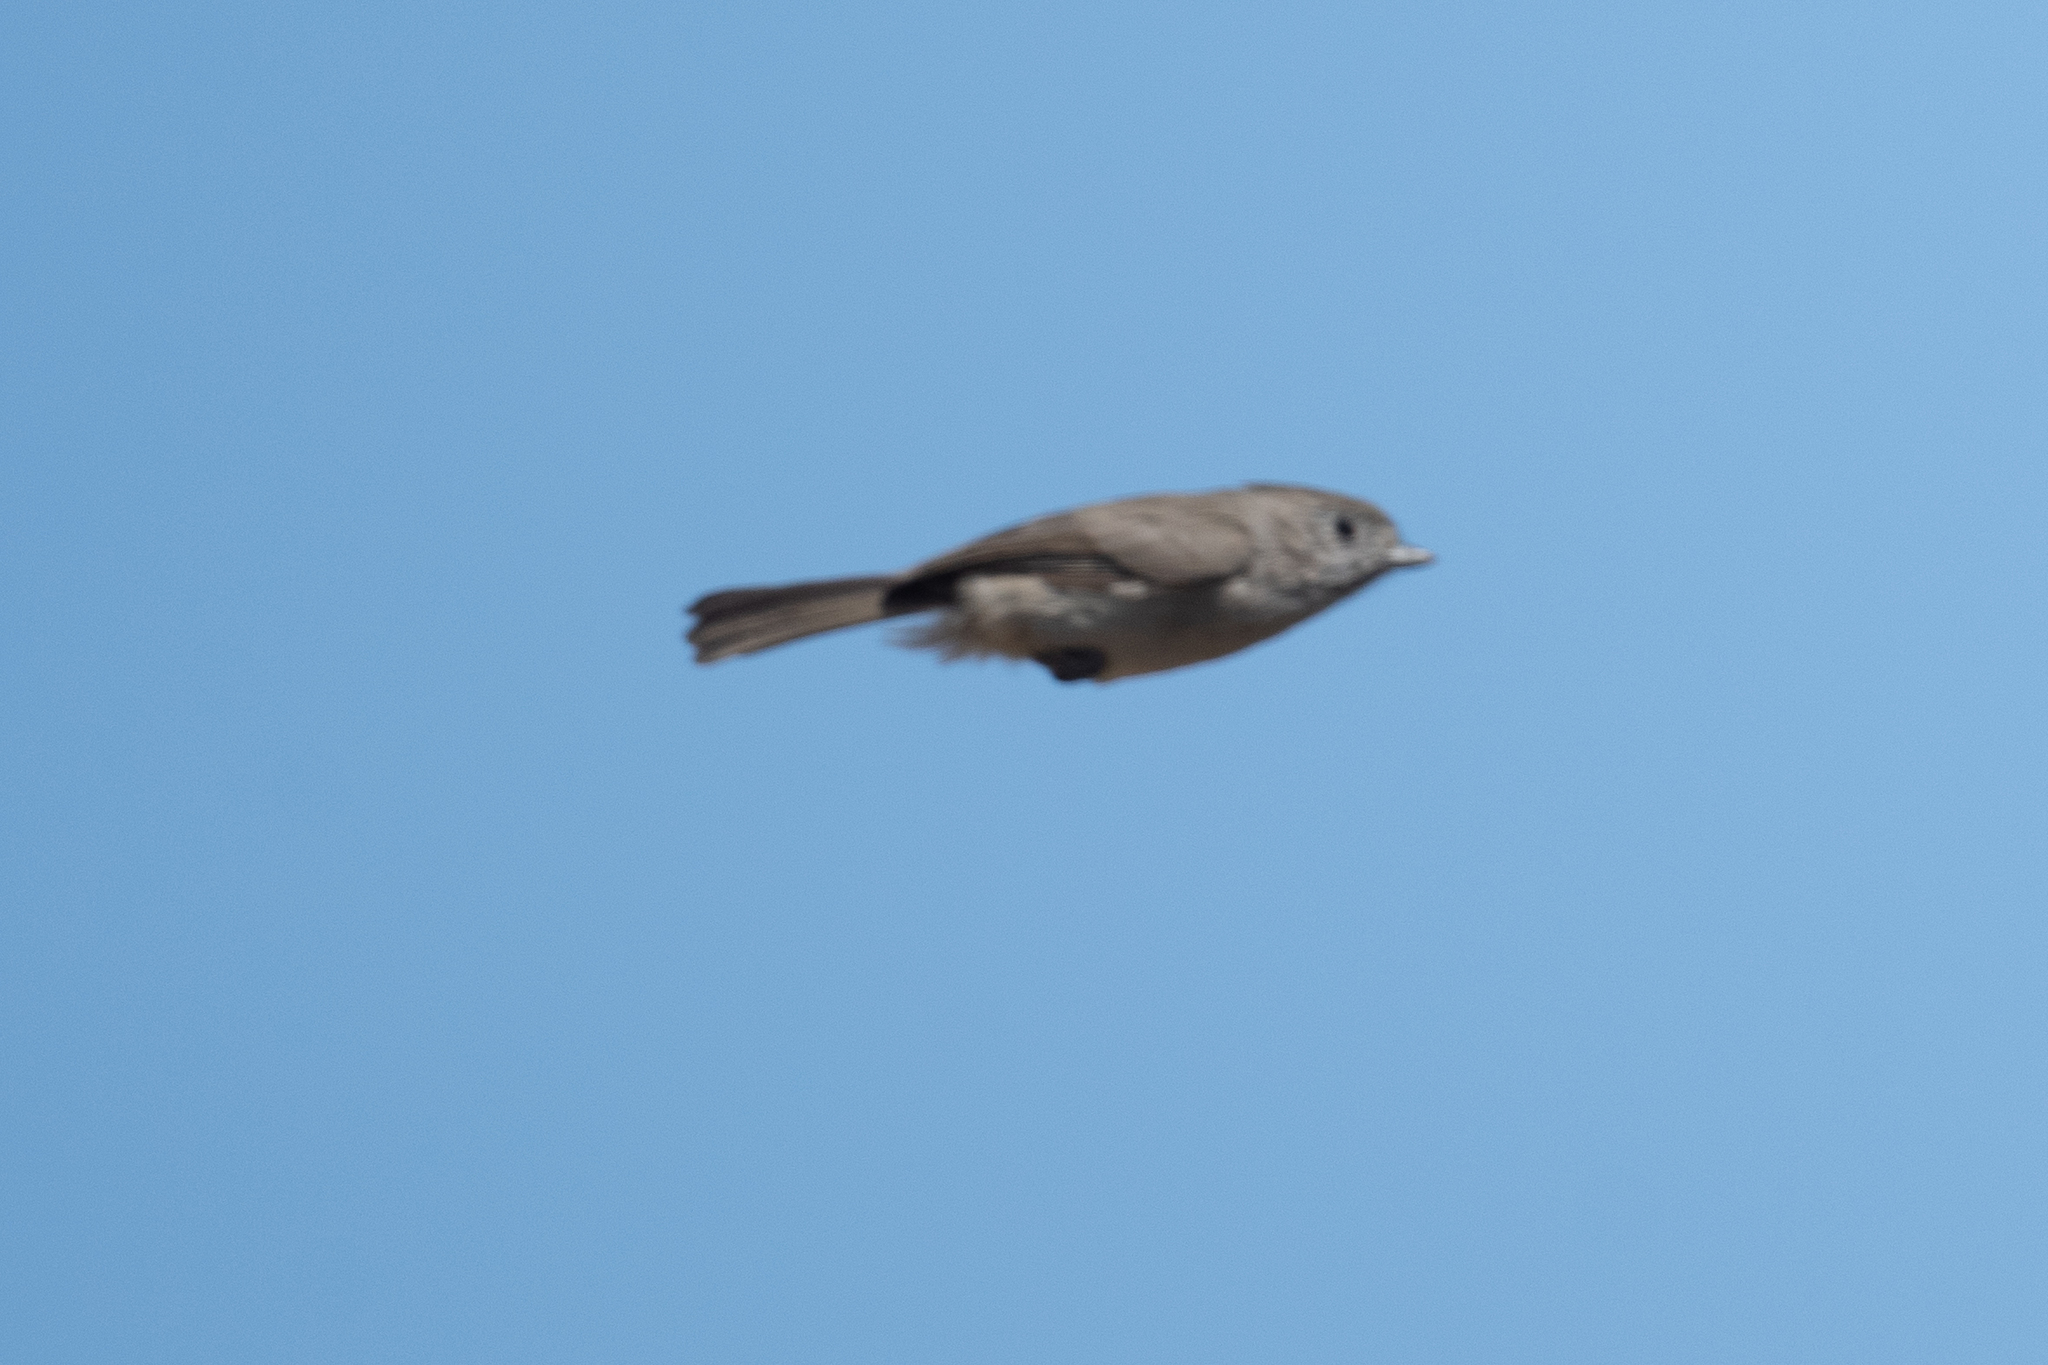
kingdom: Animalia
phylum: Chordata
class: Aves
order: Passeriformes
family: Paridae
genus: Baeolophus
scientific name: Baeolophus inornatus
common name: Oak titmouse
